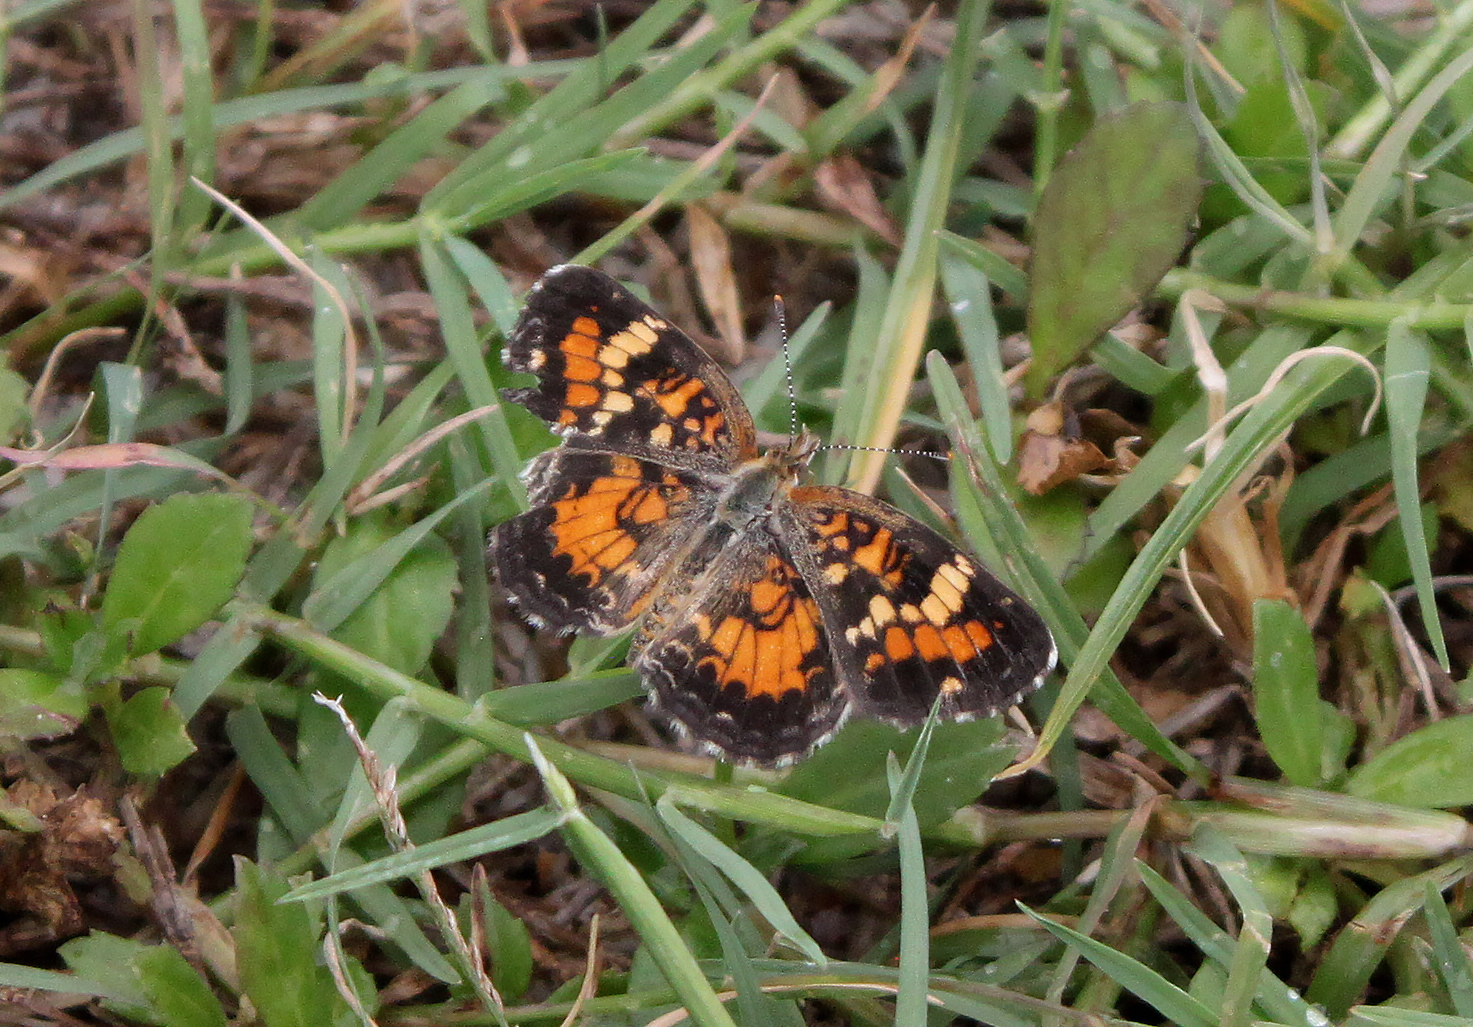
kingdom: Animalia
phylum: Arthropoda
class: Insecta
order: Lepidoptera
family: Nymphalidae
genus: Phyciodes
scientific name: Phyciodes phaon
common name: Phaon crescent
